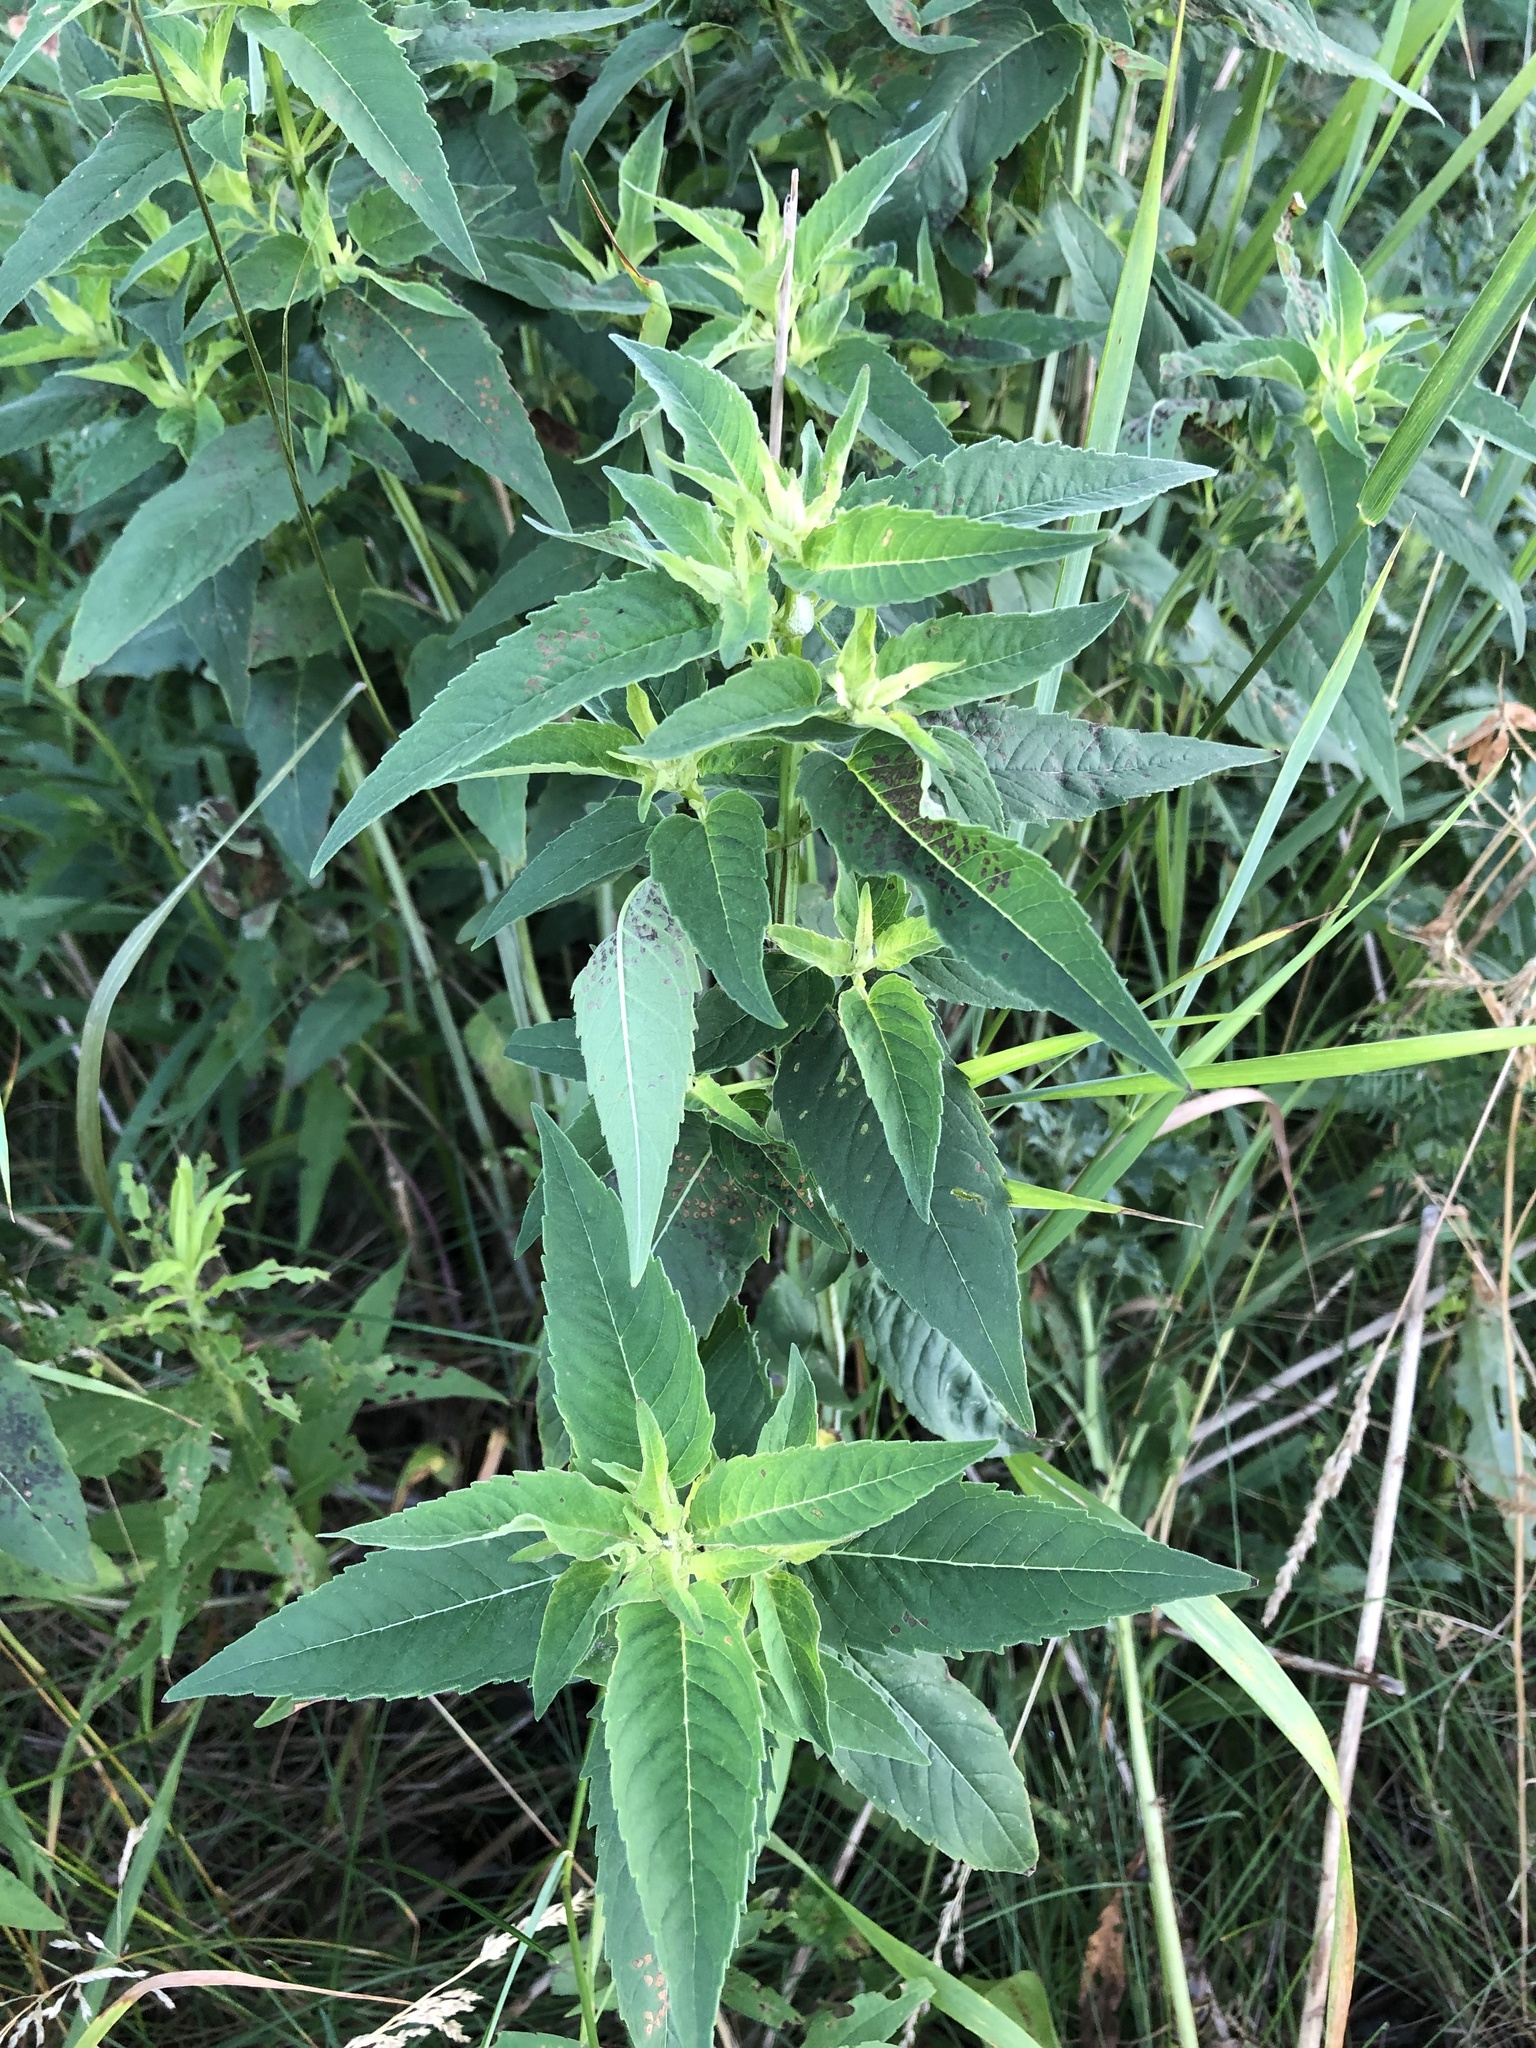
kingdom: Plantae
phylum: Tracheophyta
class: Magnoliopsida
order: Lamiales
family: Lamiaceae
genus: Monarda
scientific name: Monarda fistulosa
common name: Purple beebalm
